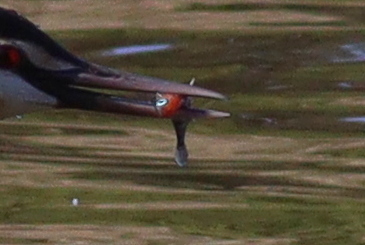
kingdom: Animalia
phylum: Chordata
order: Gasterosteiformes
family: Gasterosteidae
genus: Gasterosteus
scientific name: Gasterosteus aculeatus
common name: Three-spined stickleback
